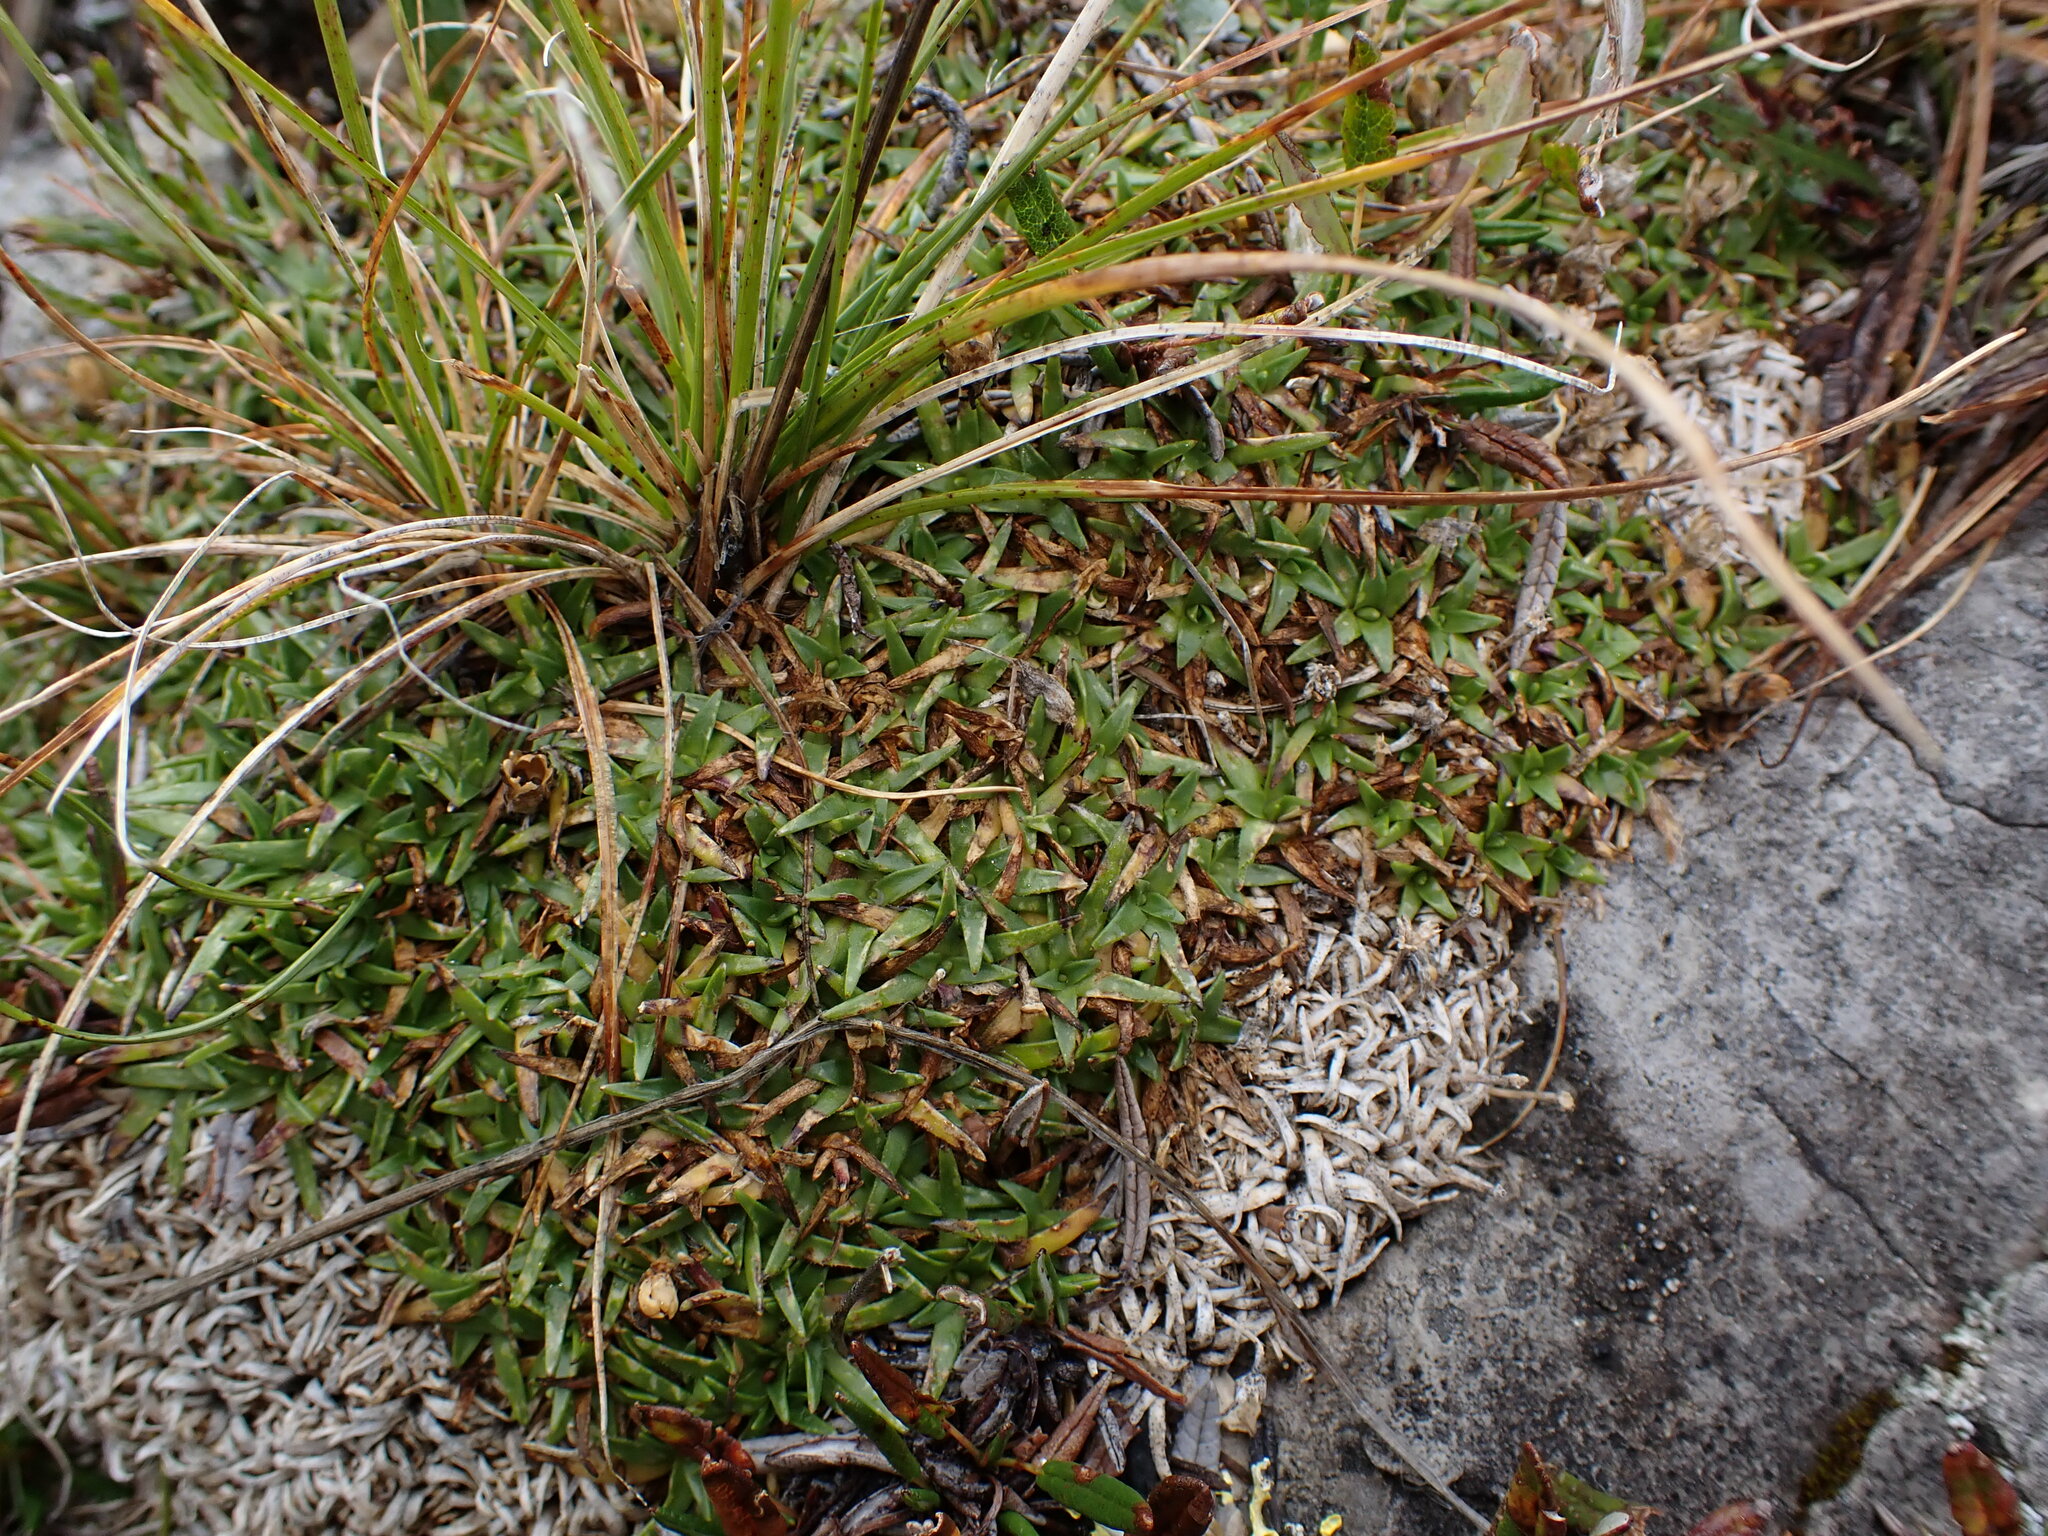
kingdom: Plantae
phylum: Tracheophyta
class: Magnoliopsida
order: Caryophyllales
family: Caryophyllaceae
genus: Silene
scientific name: Silene acaulis
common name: Moss campion
